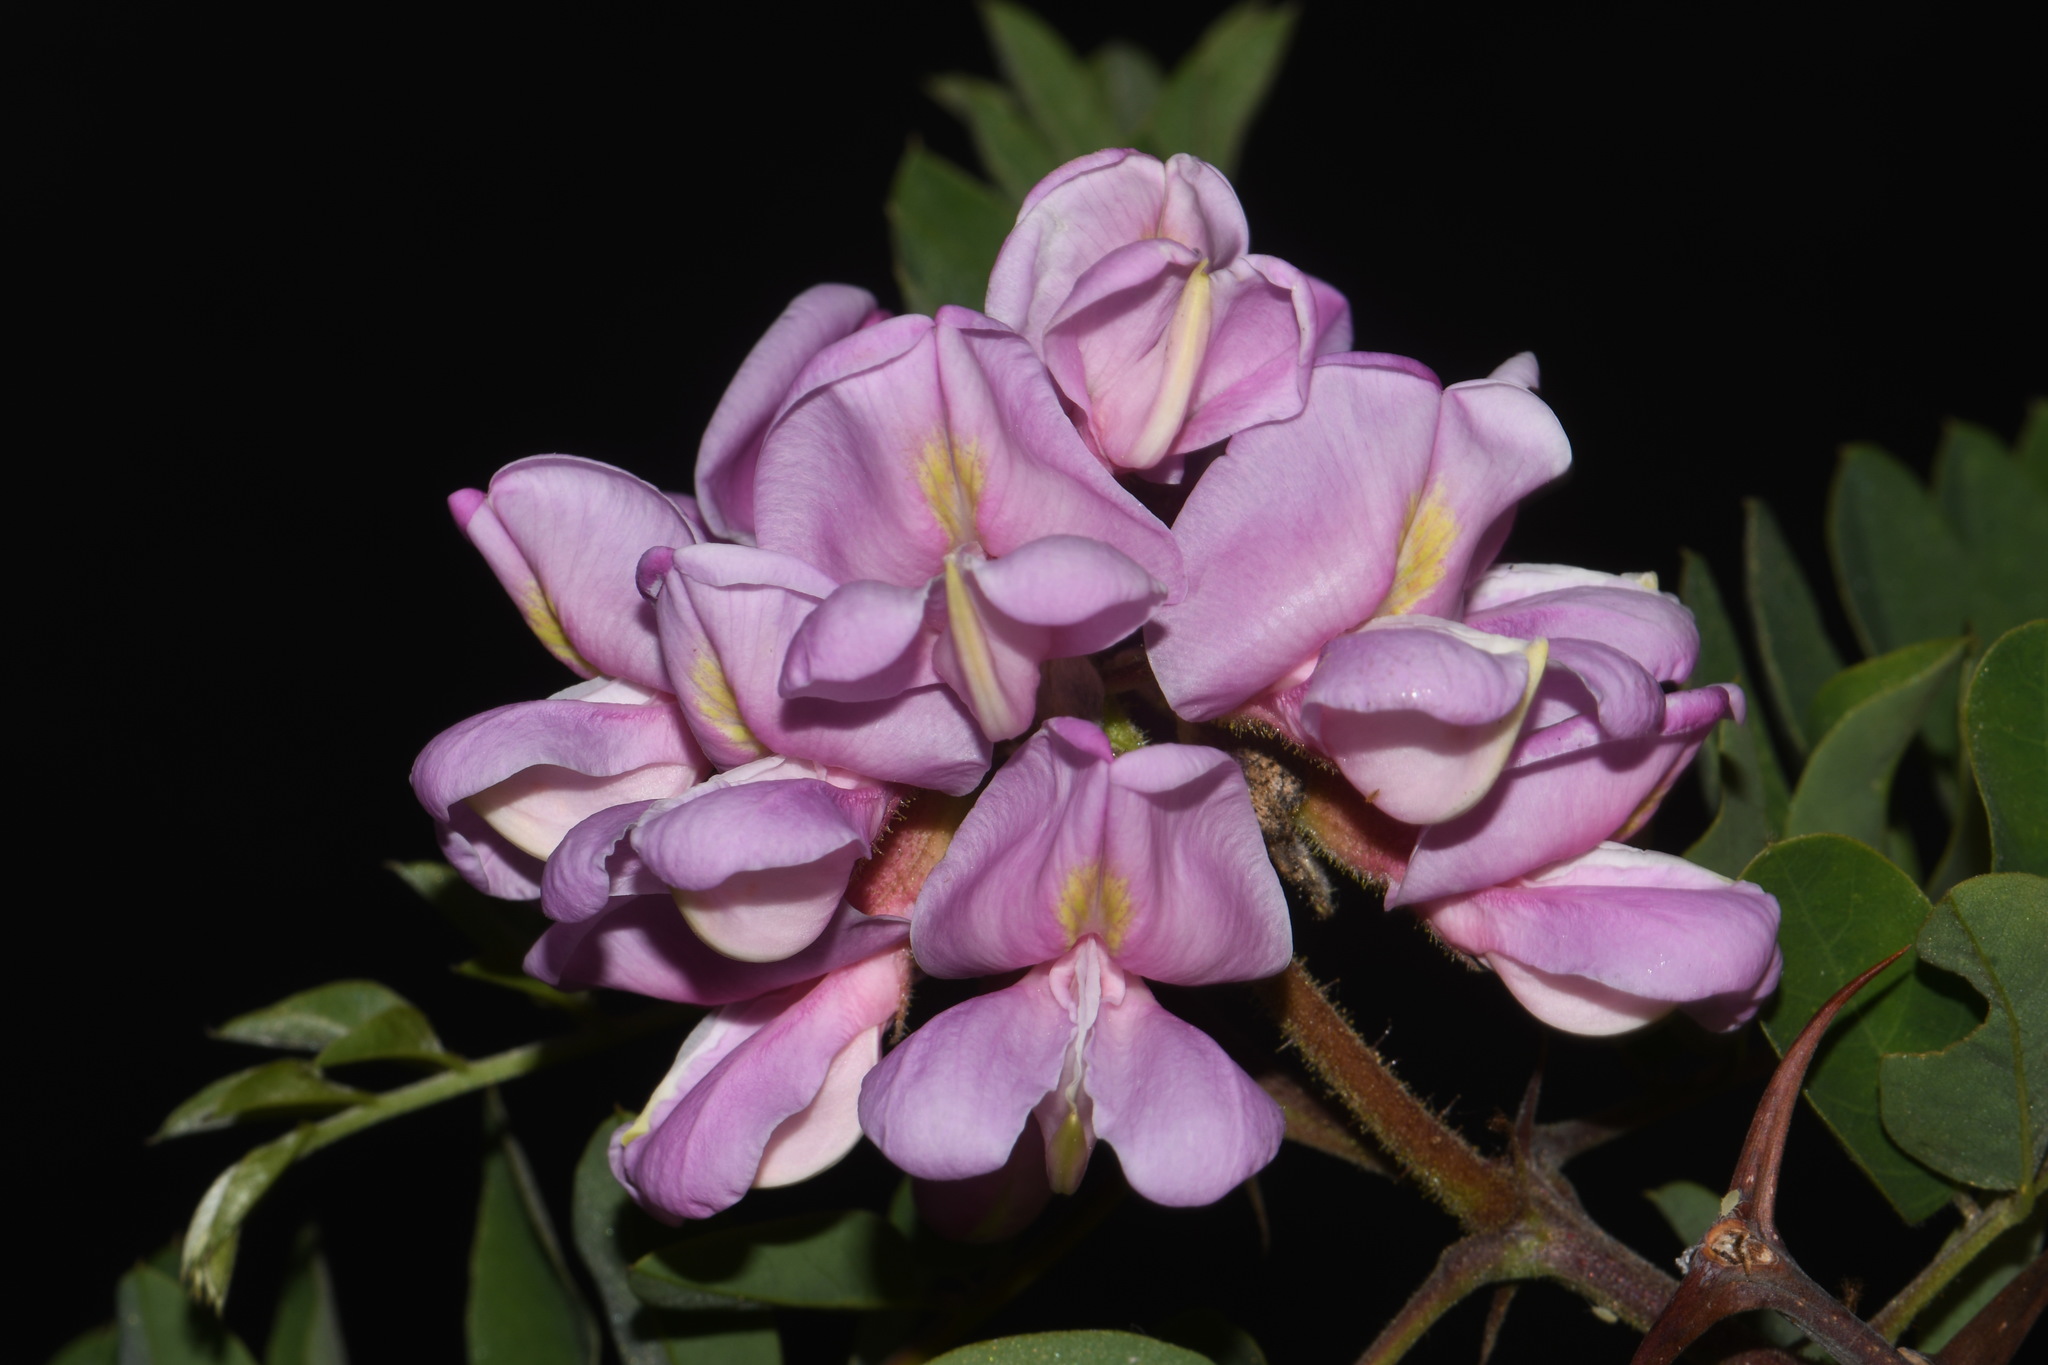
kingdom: Plantae
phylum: Tracheophyta
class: Magnoliopsida
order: Fabales
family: Fabaceae
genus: Robinia
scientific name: Robinia neomexicana
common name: New mexico locust
